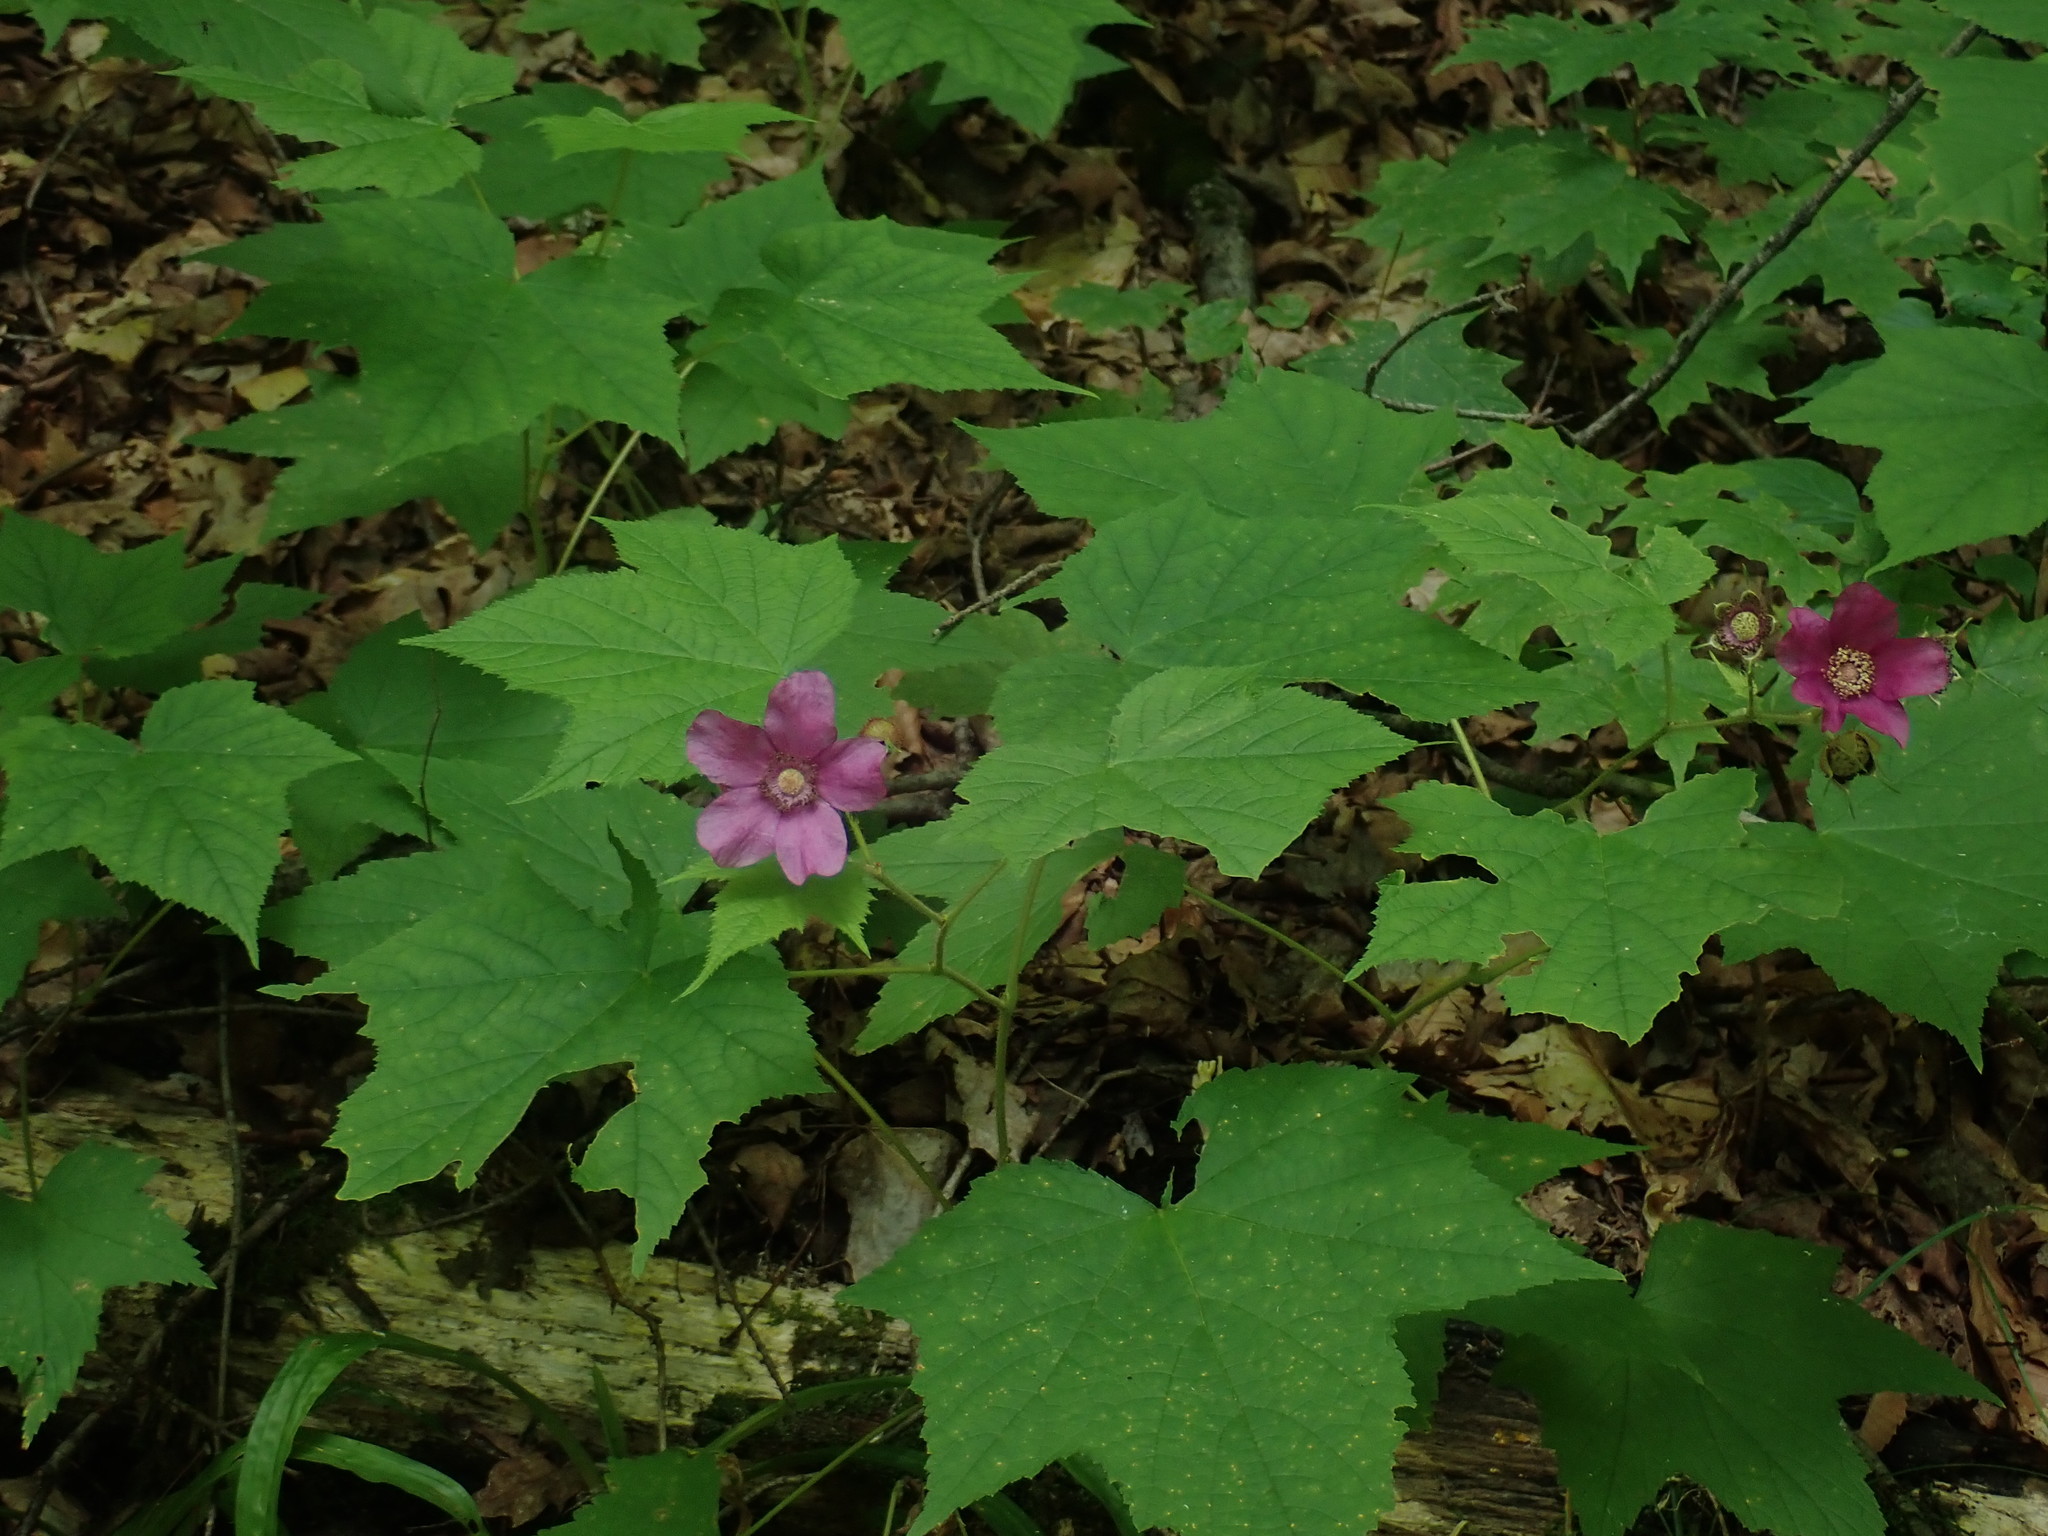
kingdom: Plantae
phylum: Tracheophyta
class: Magnoliopsida
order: Rosales
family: Rosaceae
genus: Rubus
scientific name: Rubus odoratus
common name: Purple-flowered raspberry
